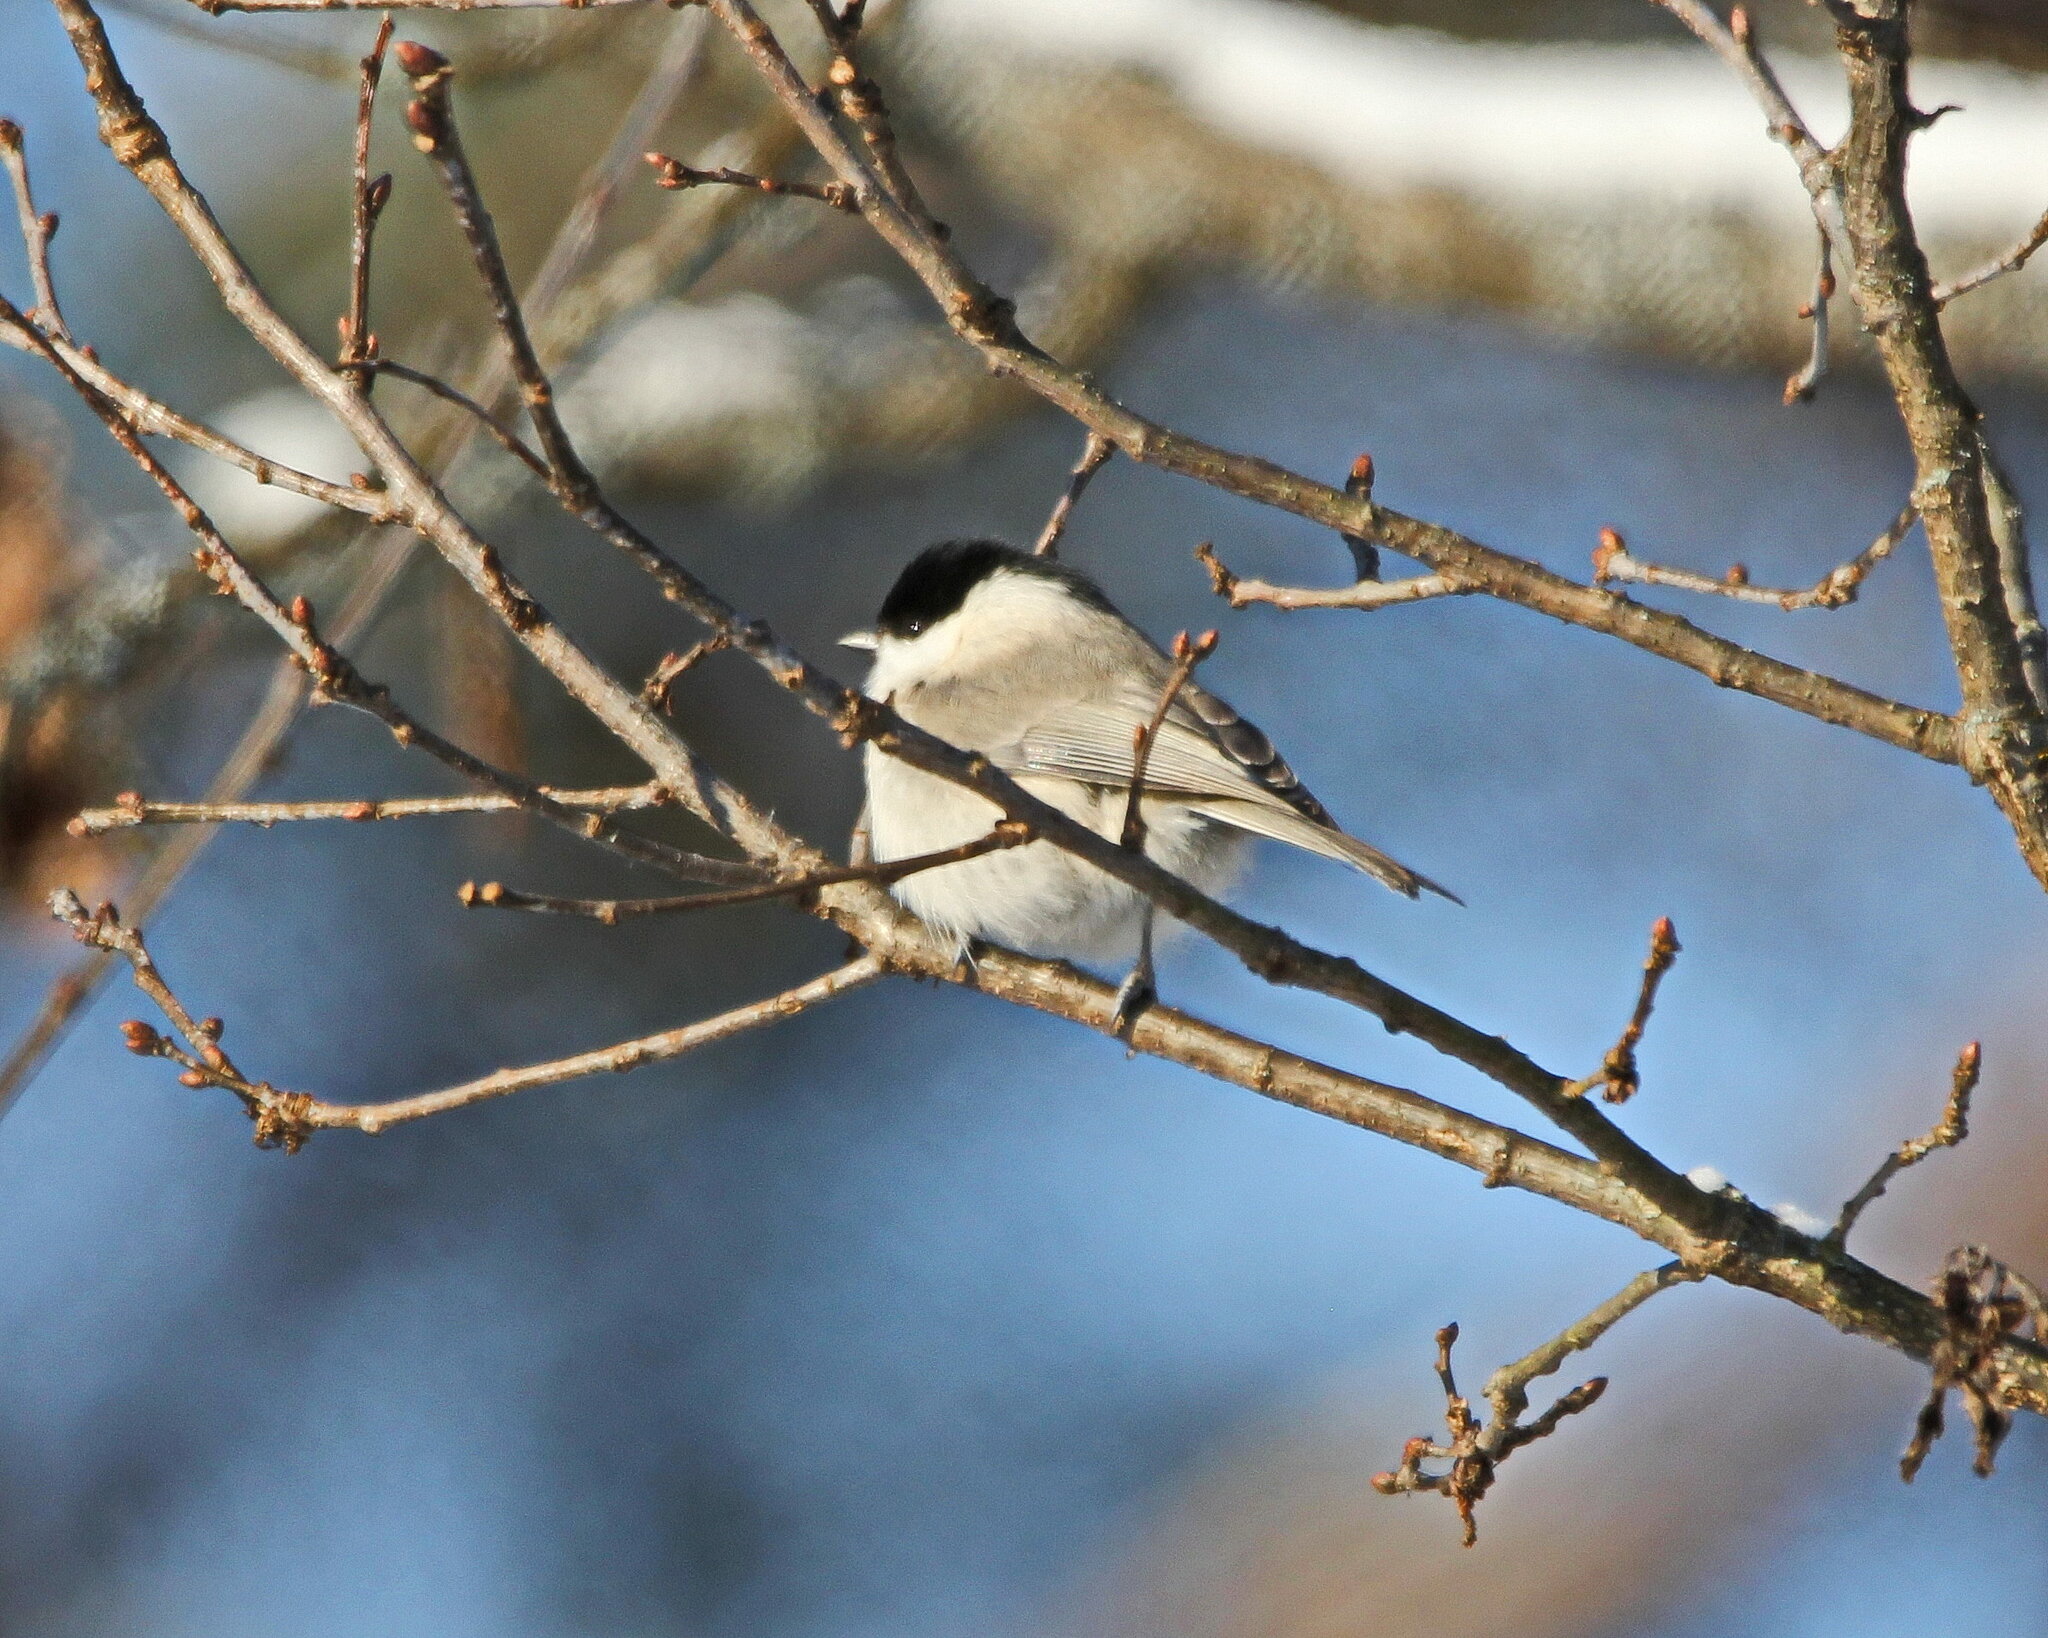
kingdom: Animalia
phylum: Chordata
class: Aves
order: Passeriformes
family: Paridae
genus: Poecile
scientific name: Poecile palustris
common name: Marsh tit
